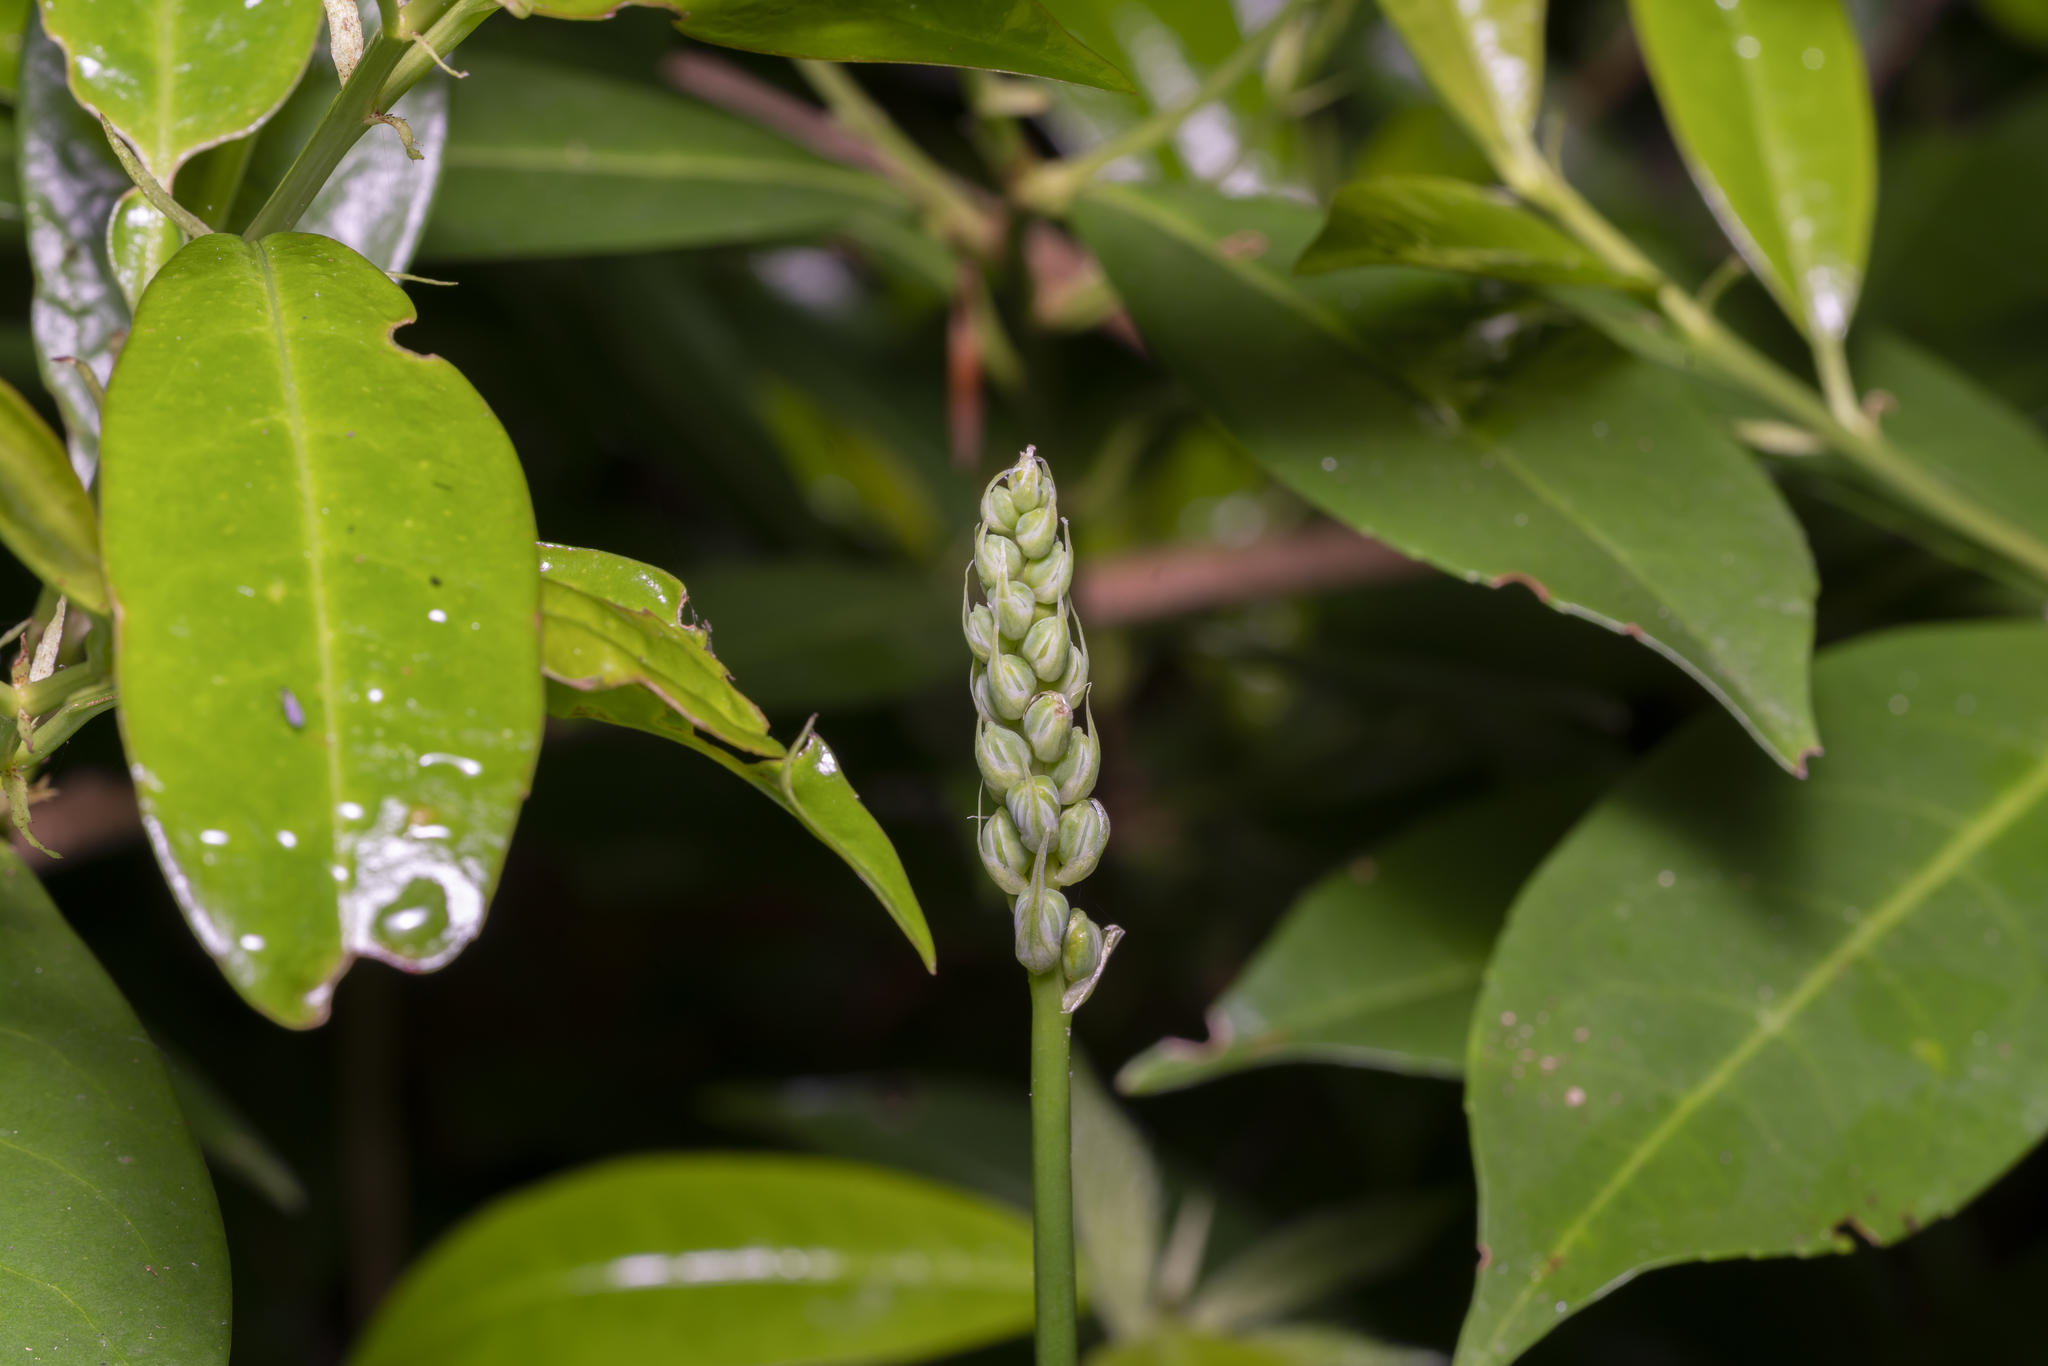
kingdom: Plantae
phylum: Tracheophyta
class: Liliopsida
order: Asparagales
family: Asparagaceae
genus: Ornithogalum
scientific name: Ornithogalum pyrenaicum
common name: Spiked star-of-bethlehem
